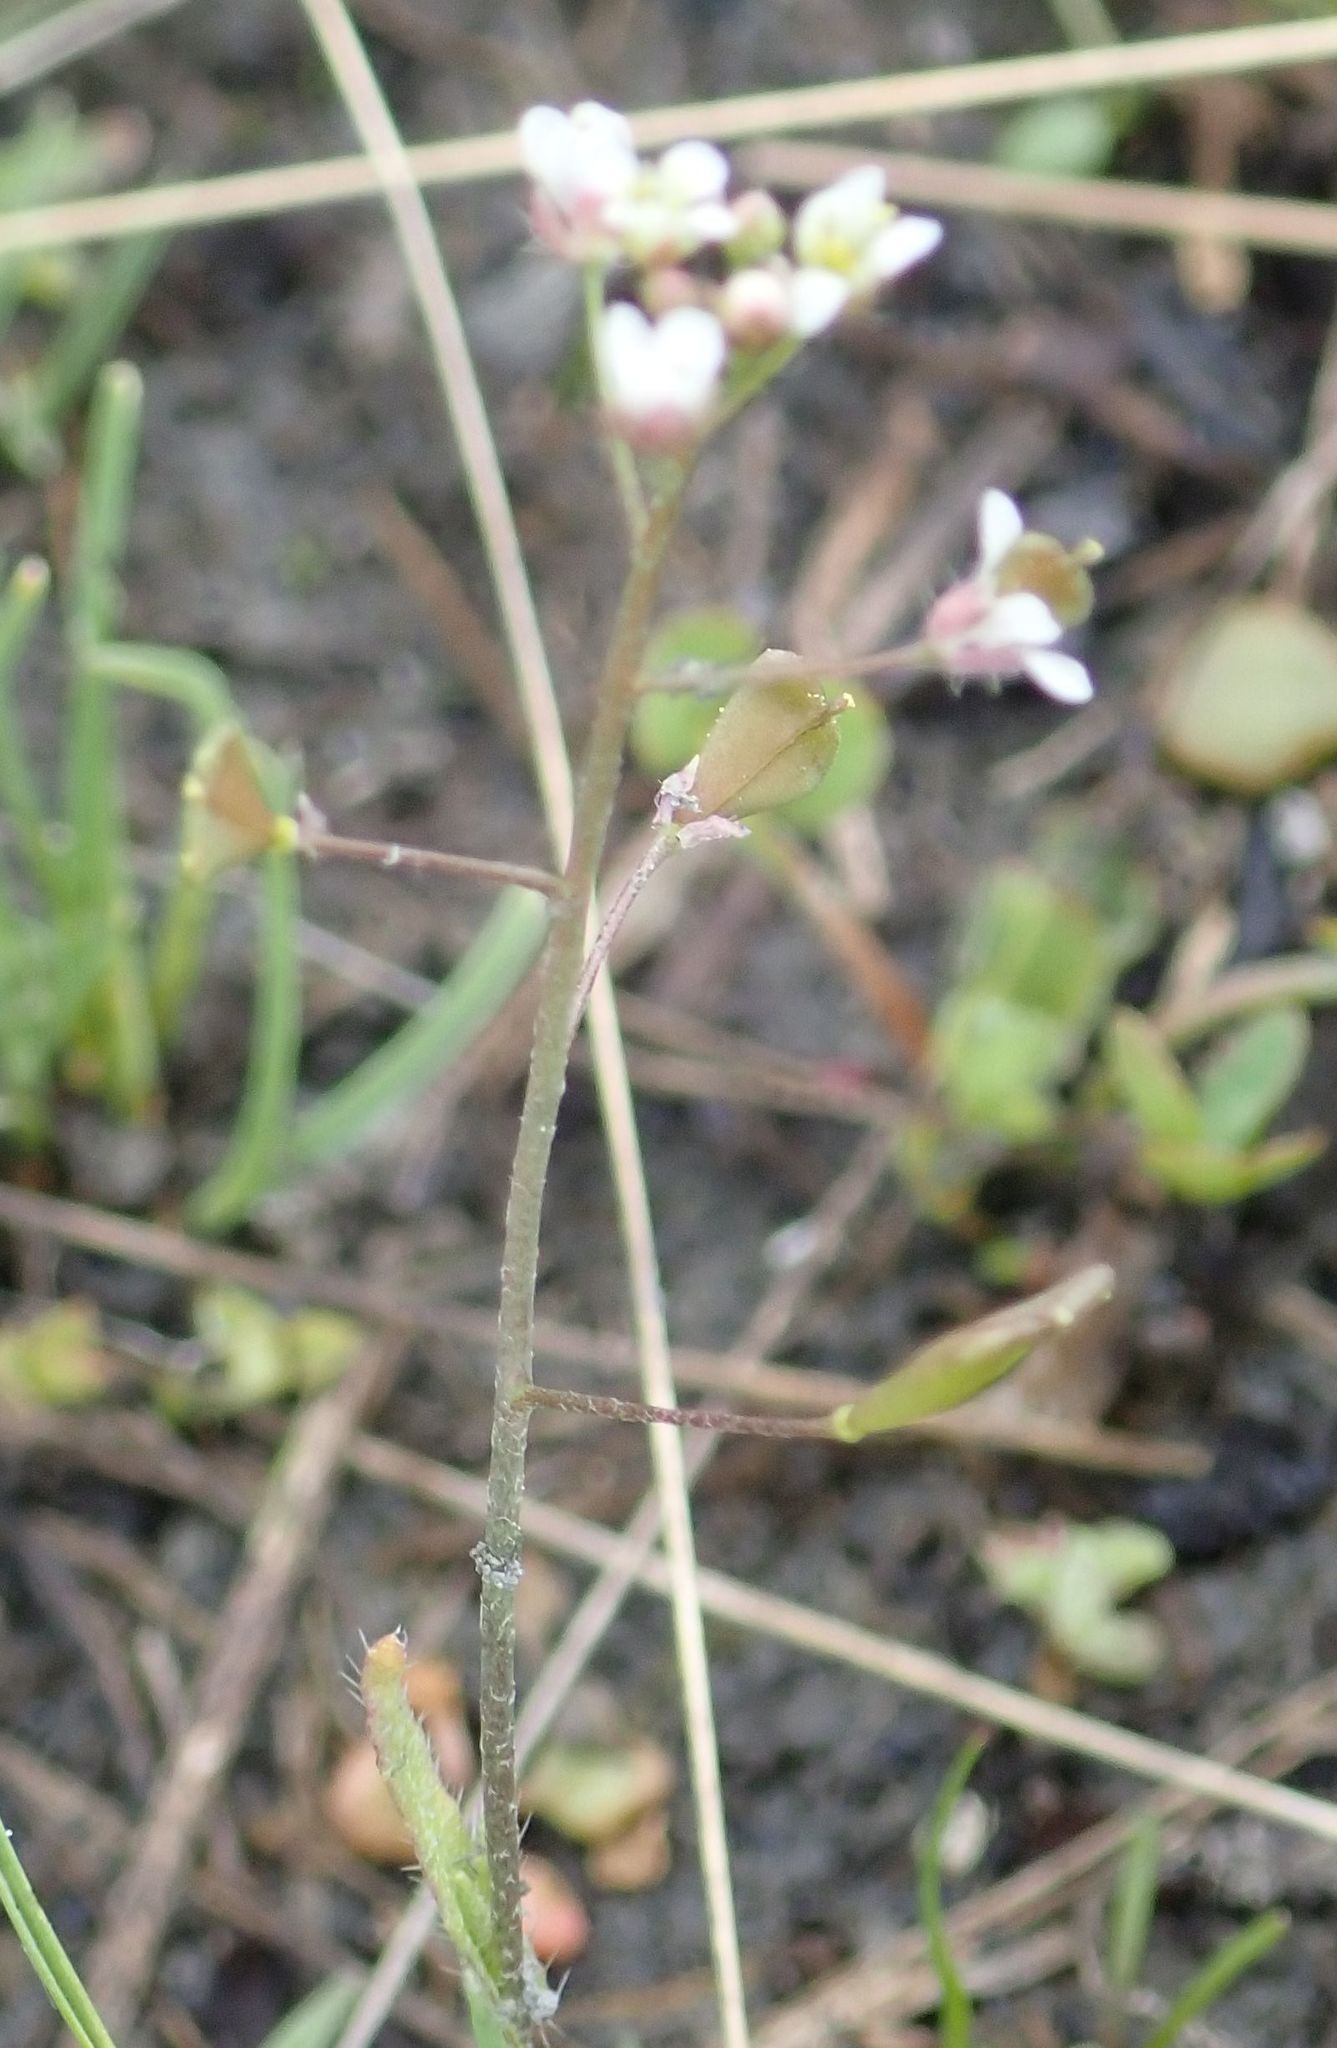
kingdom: Plantae
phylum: Tracheophyta
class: Magnoliopsida
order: Brassicales
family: Brassicaceae
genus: Capsella
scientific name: Capsella bursa-pastoris
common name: Shepherd's purse
